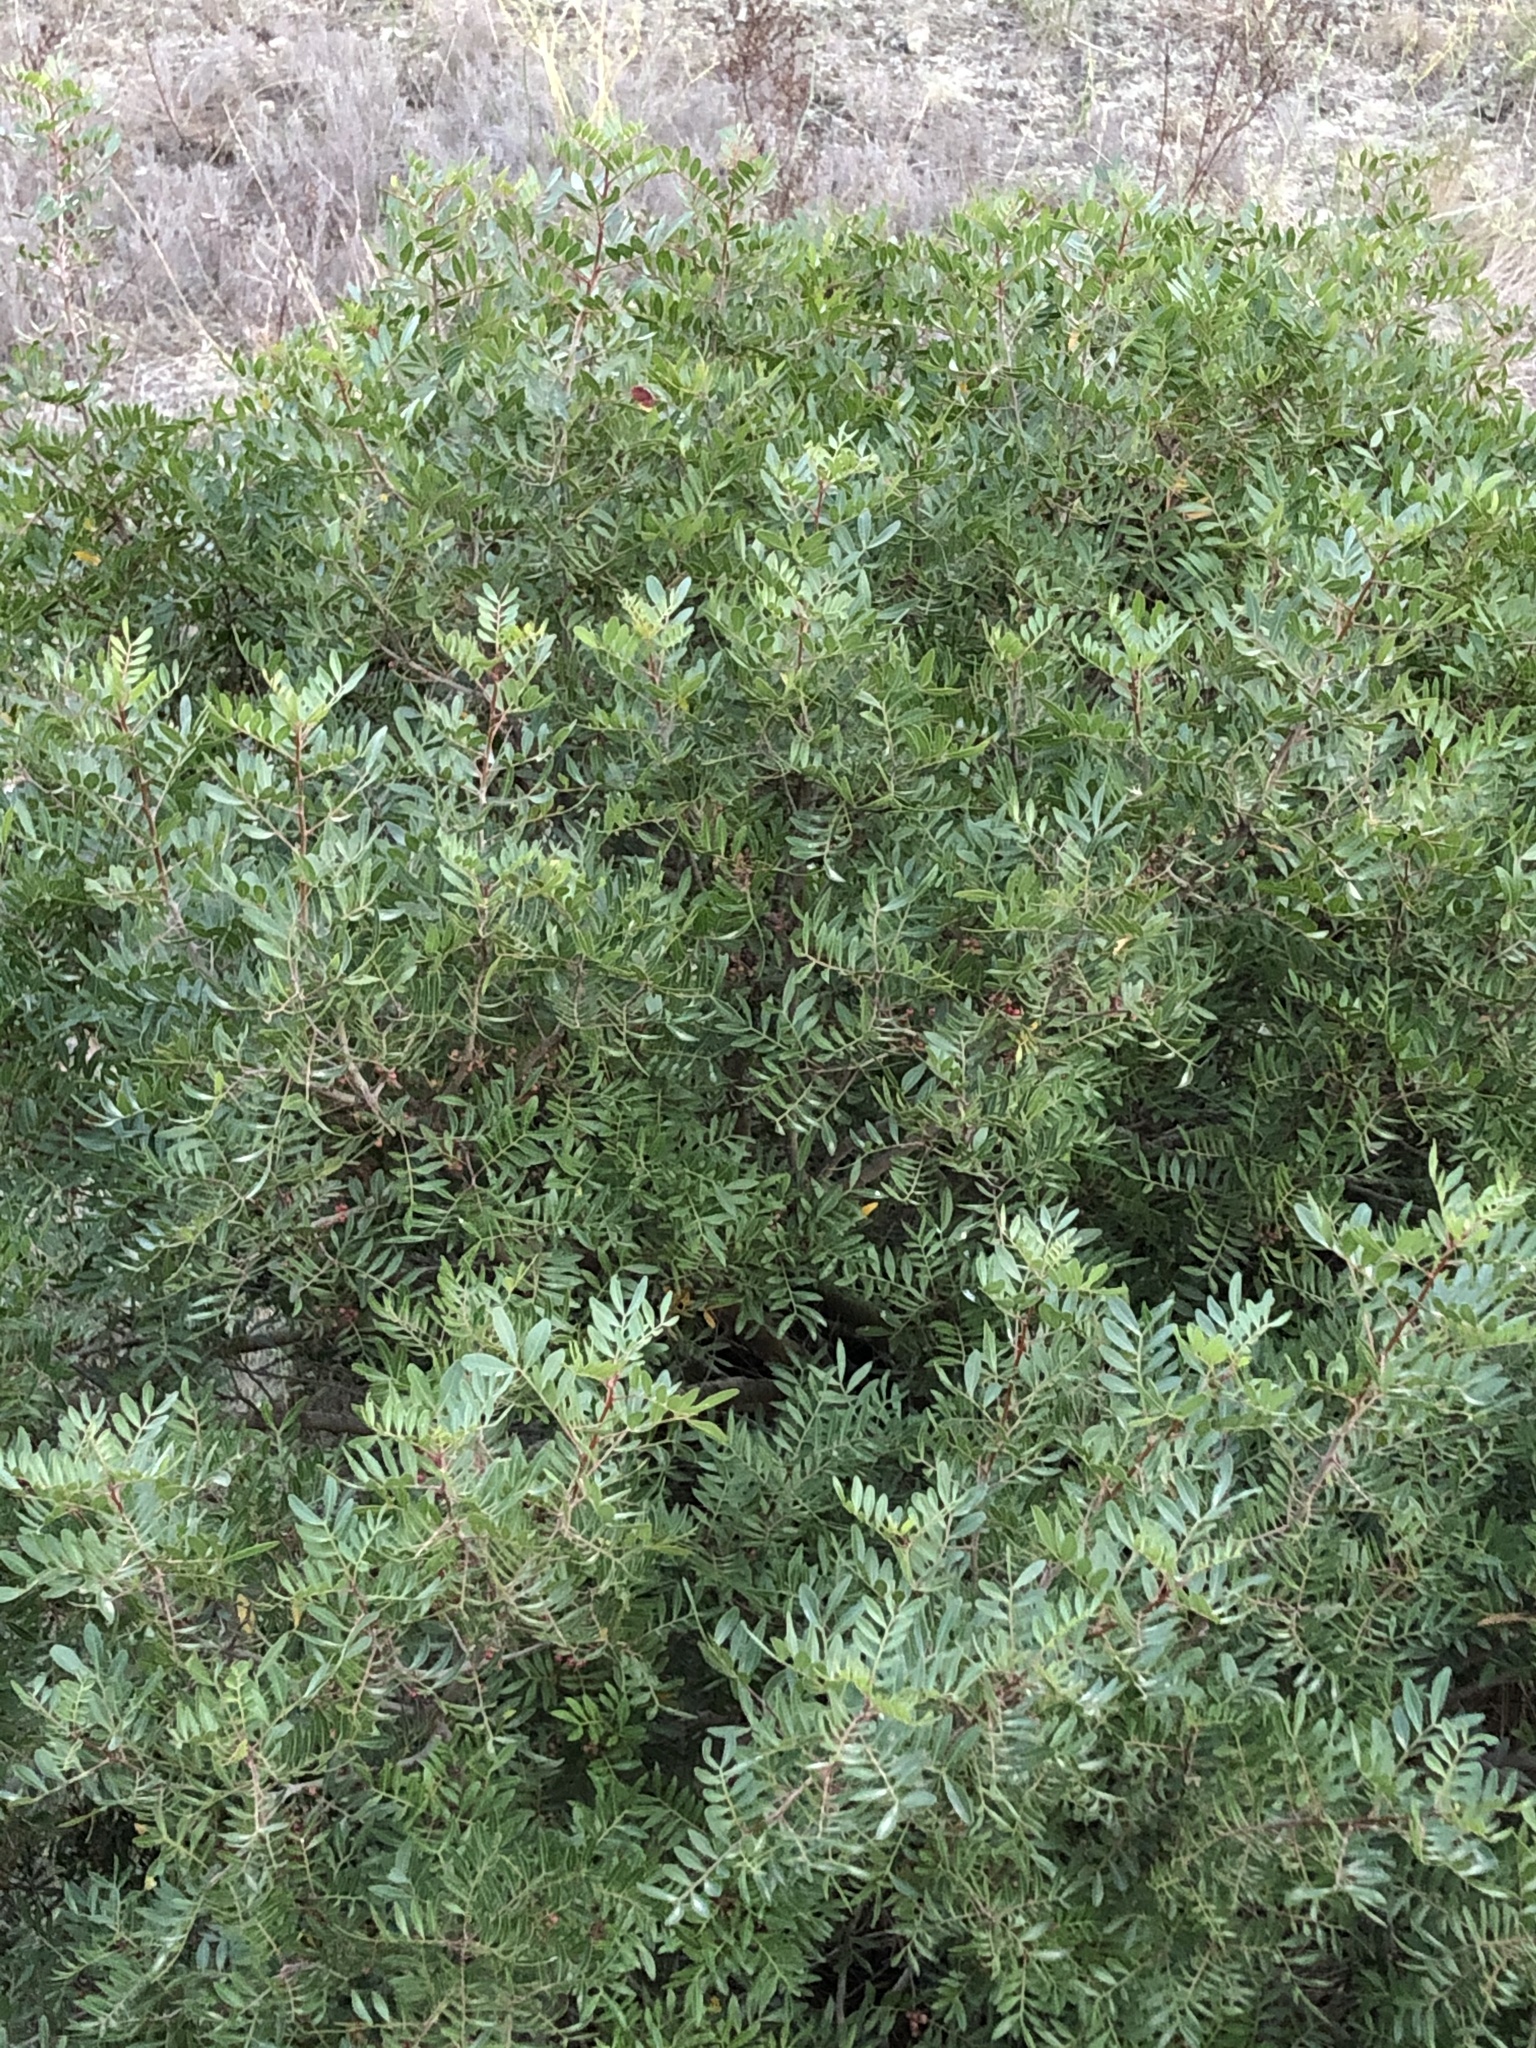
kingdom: Plantae
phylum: Tracheophyta
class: Magnoliopsida
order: Sapindales
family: Anacardiaceae
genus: Pistacia
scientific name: Pistacia lentiscus
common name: Lentisk
